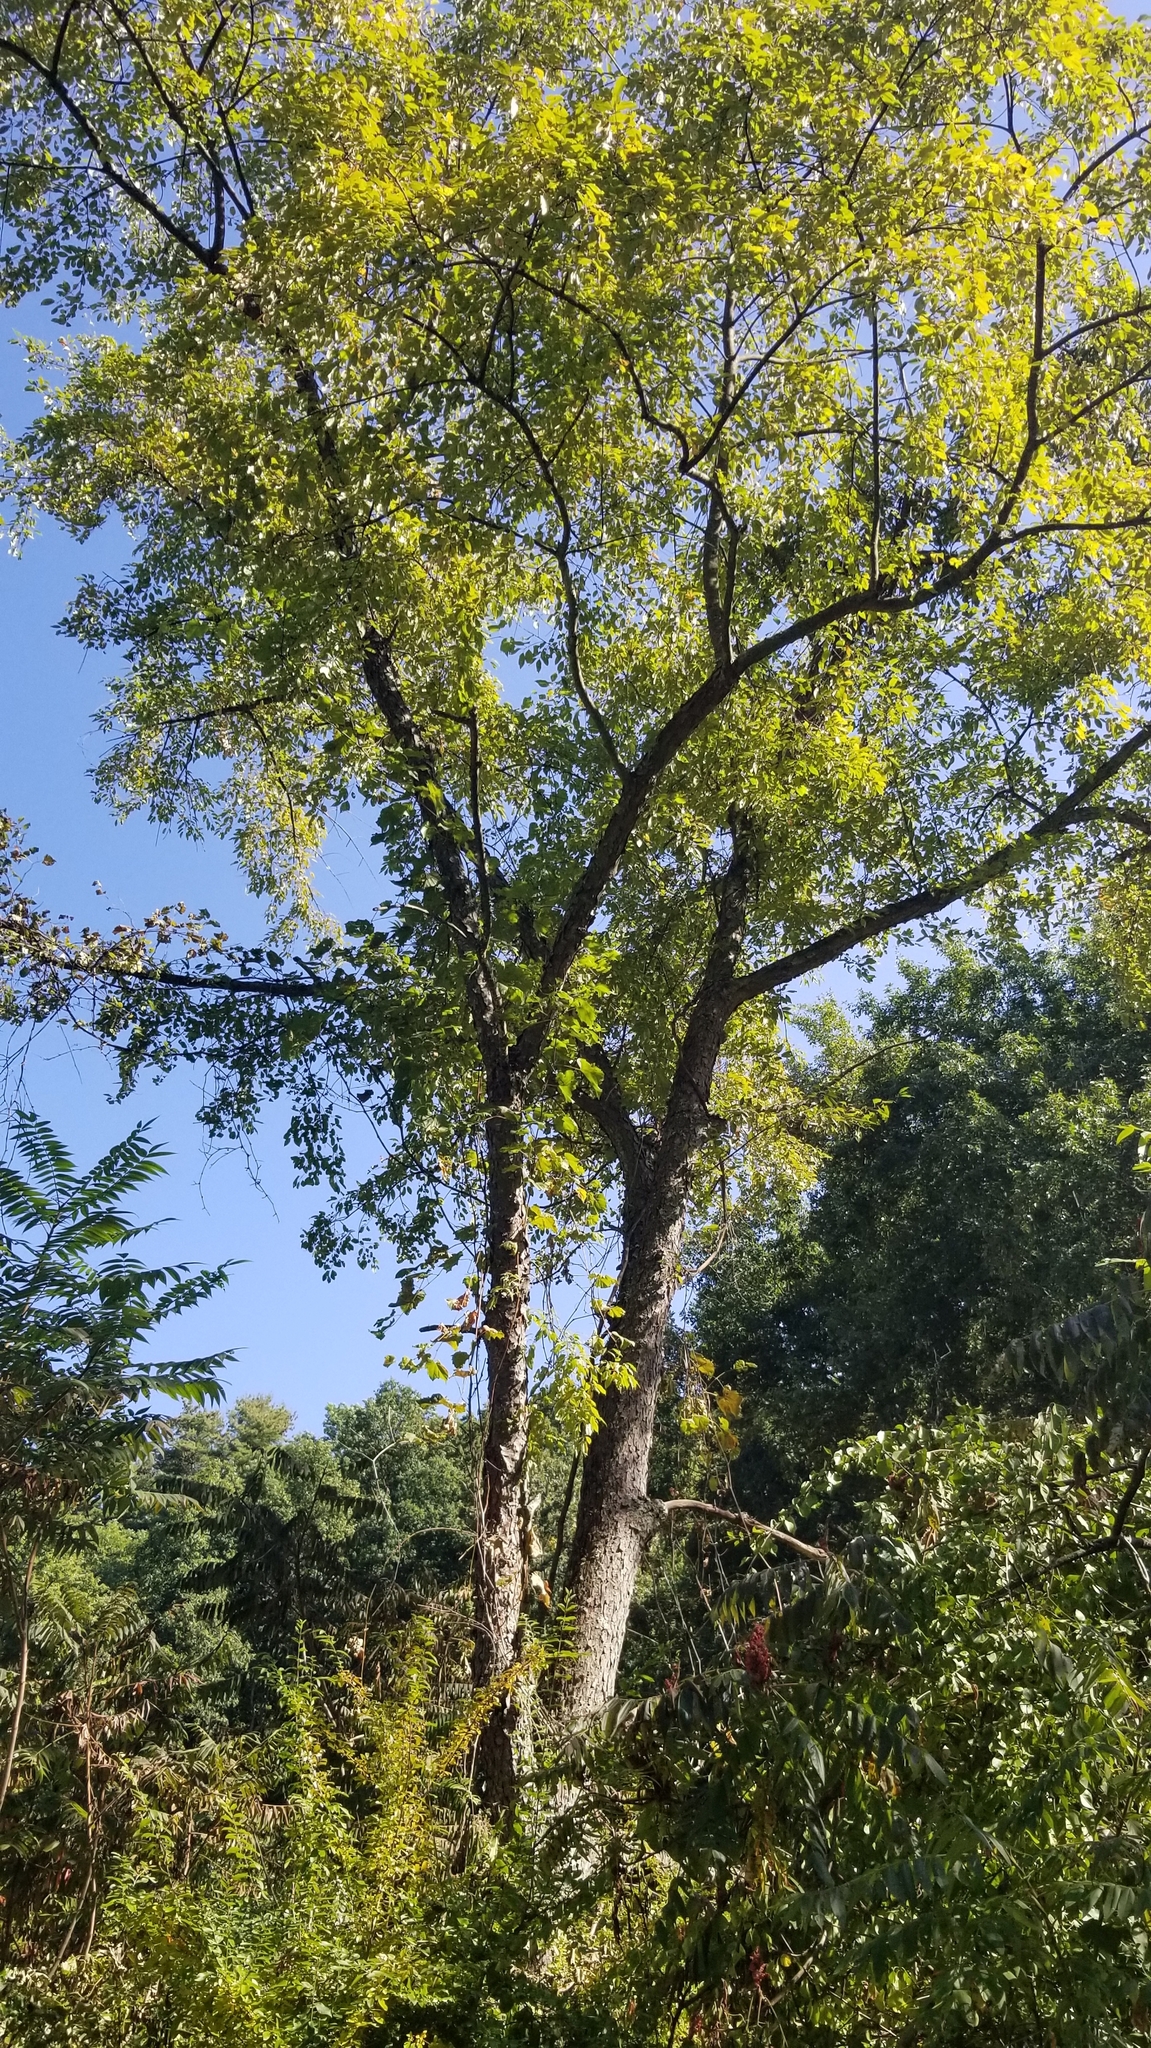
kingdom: Plantae
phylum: Tracheophyta
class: Magnoliopsida
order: Rosales
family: Rosaceae
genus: Prunus
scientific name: Prunus serotina
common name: Black cherry
